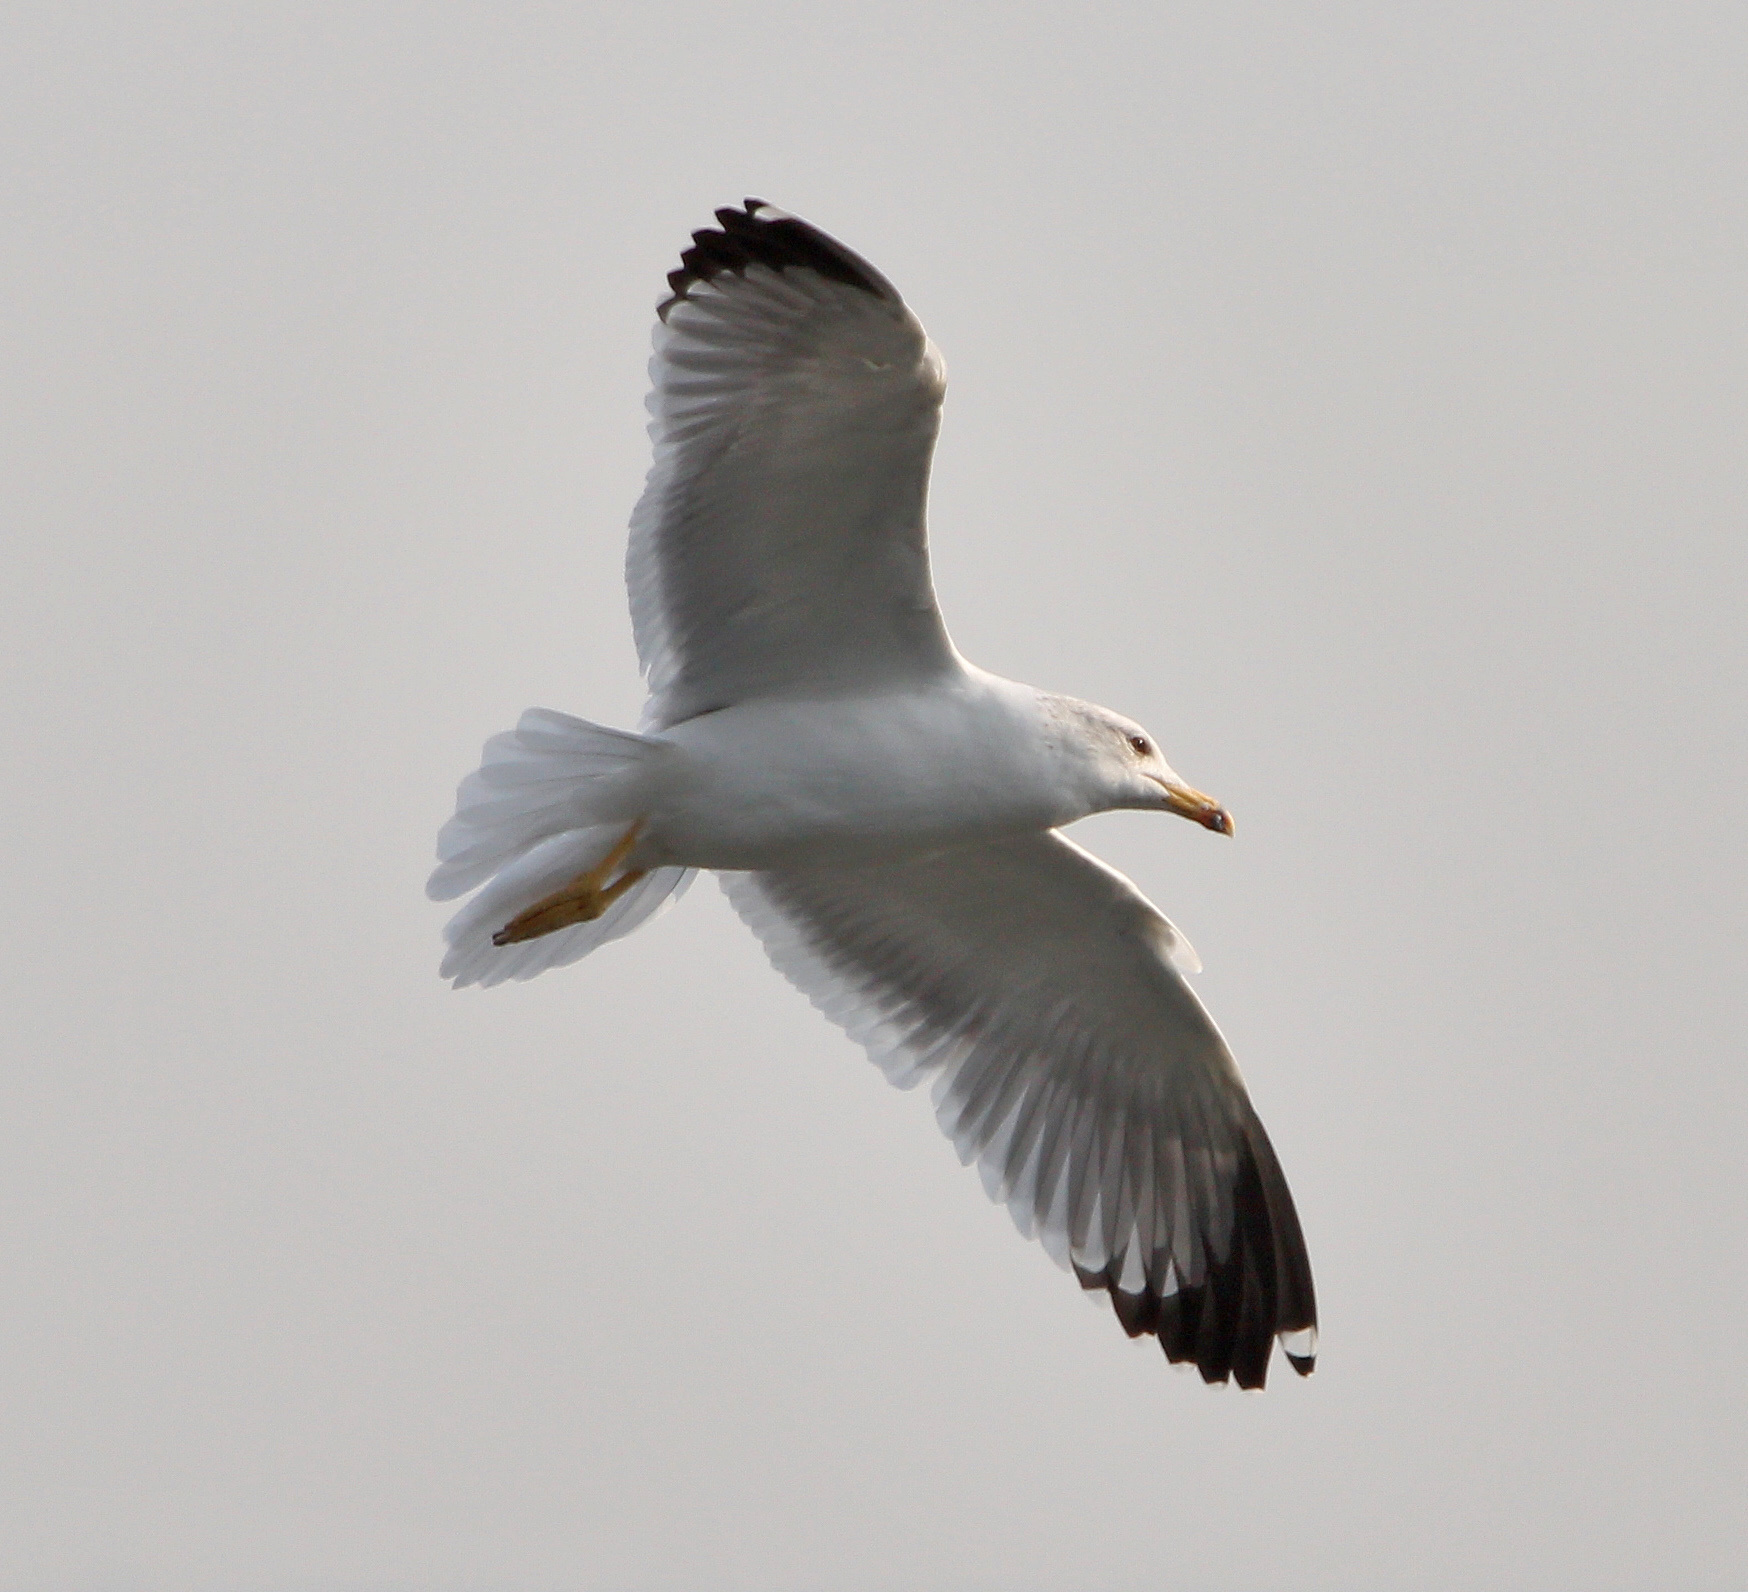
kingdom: Animalia
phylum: Chordata
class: Aves
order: Charadriiformes
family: Laridae
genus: Larus
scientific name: Larus armenicus
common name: Armenian gull
